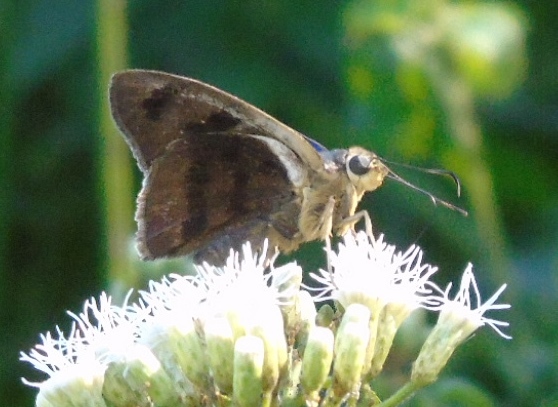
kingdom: Animalia
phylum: Arthropoda
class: Insecta
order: Lepidoptera
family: Hesperiidae
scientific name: Hesperiidae
